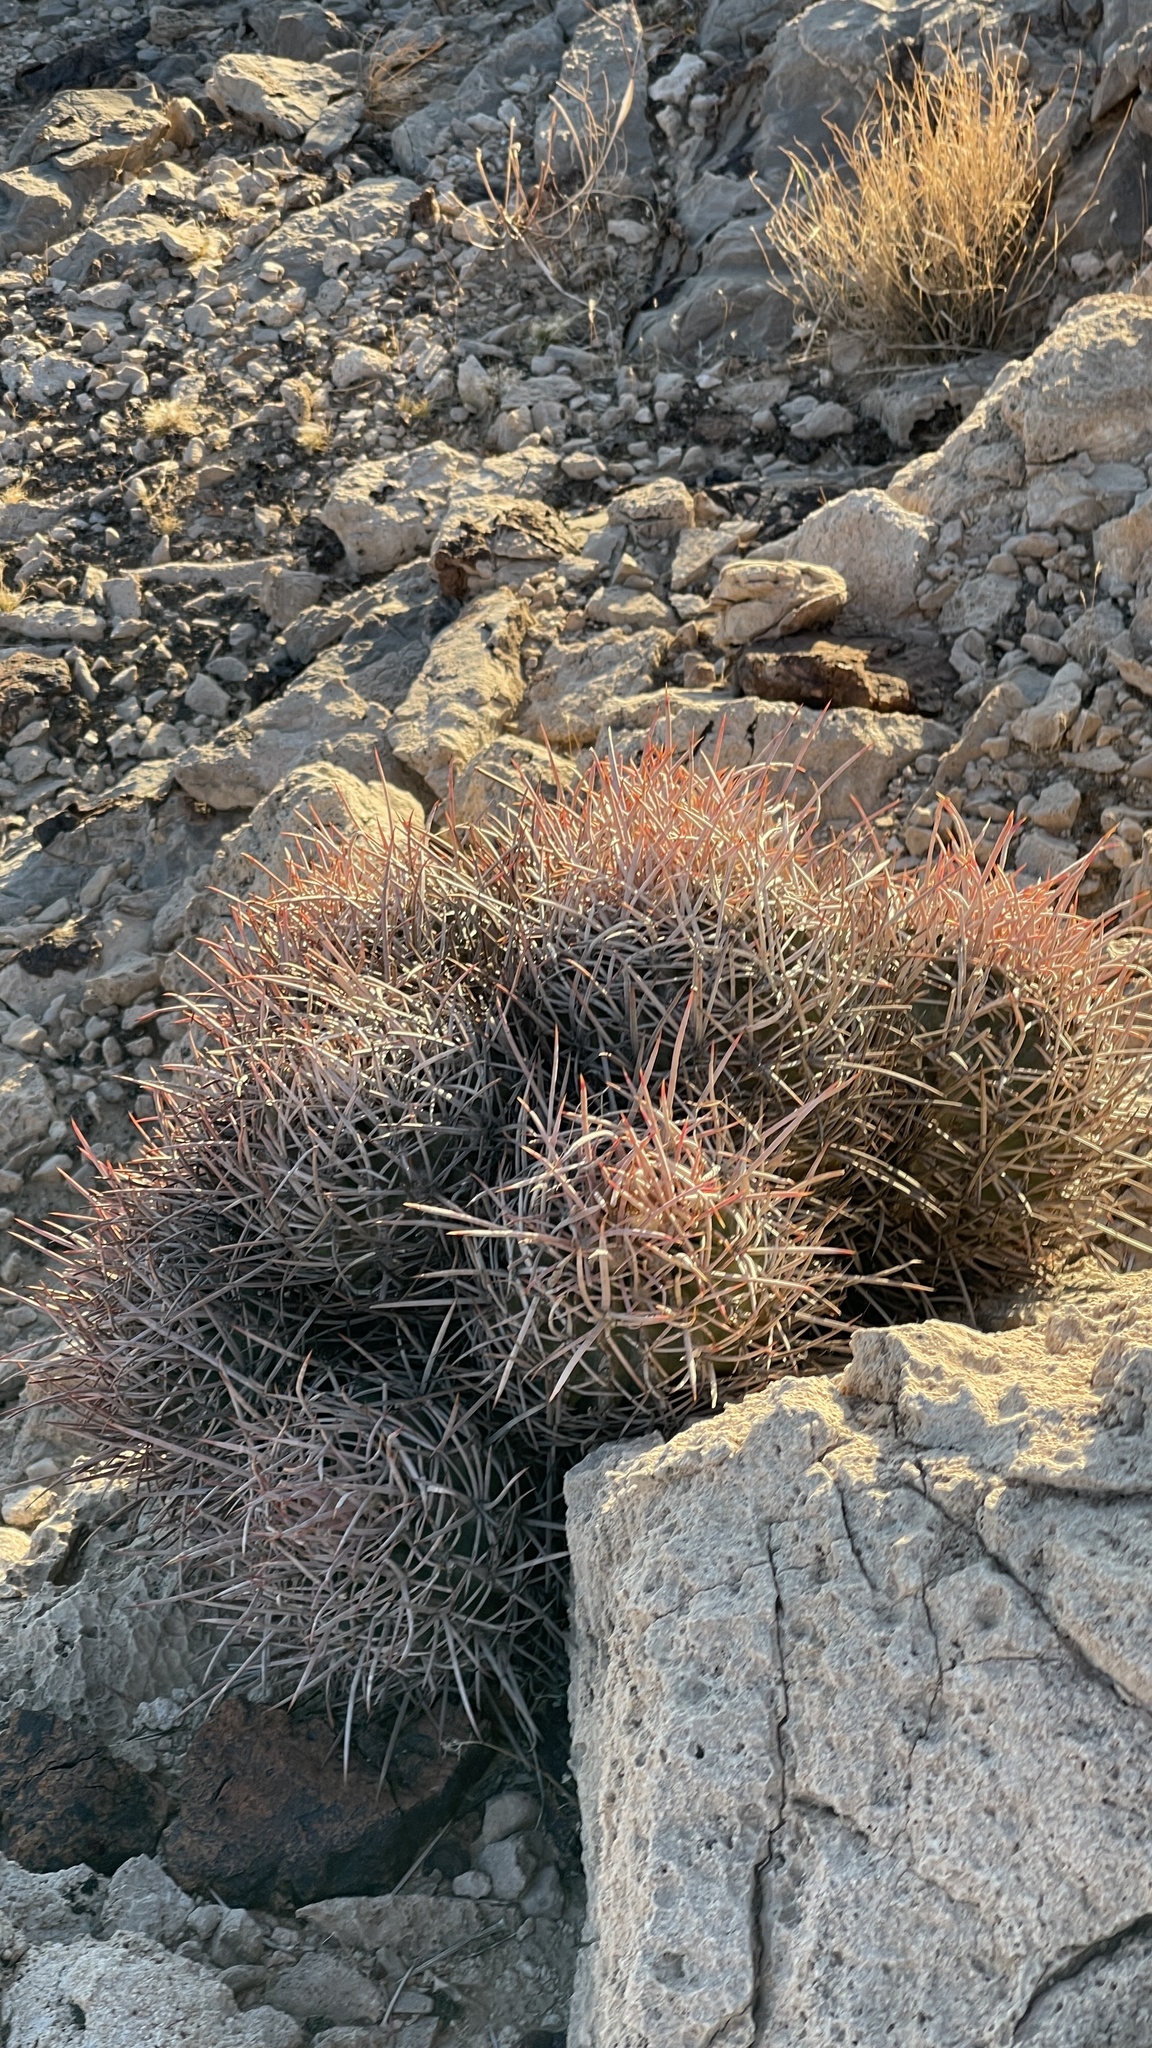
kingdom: Plantae
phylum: Tracheophyta
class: Magnoliopsida
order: Caryophyllales
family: Cactaceae
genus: Echinocactus
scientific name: Echinocactus polycephalus
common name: Cottontop cactus
